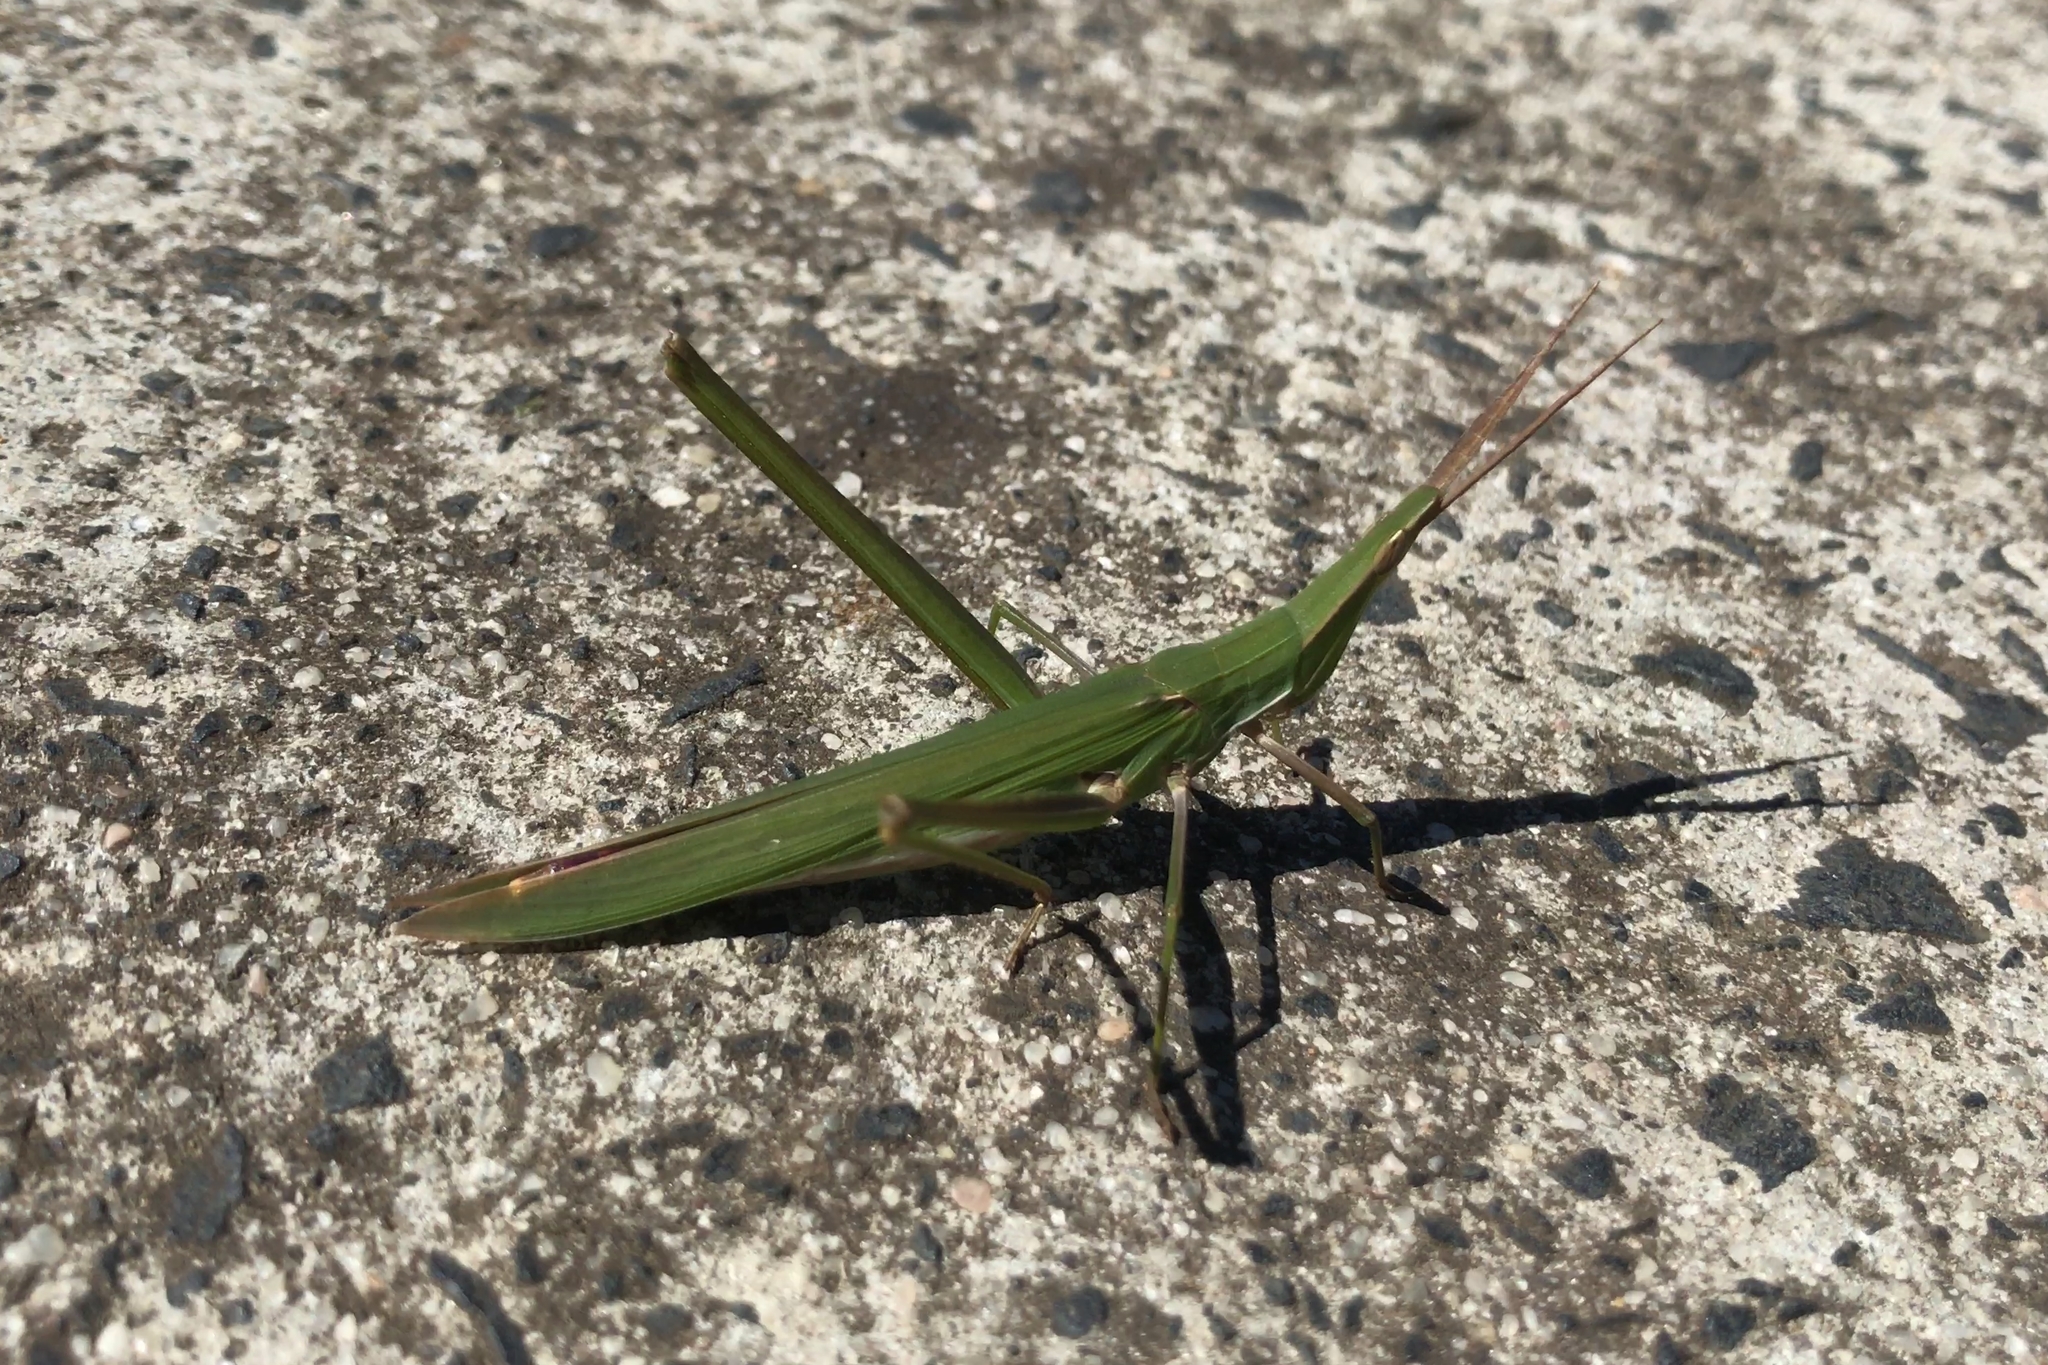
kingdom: Animalia
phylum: Arthropoda
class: Insecta
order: Orthoptera
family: Acrididae
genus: Acrida
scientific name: Acrida conica
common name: Giant green slantface
